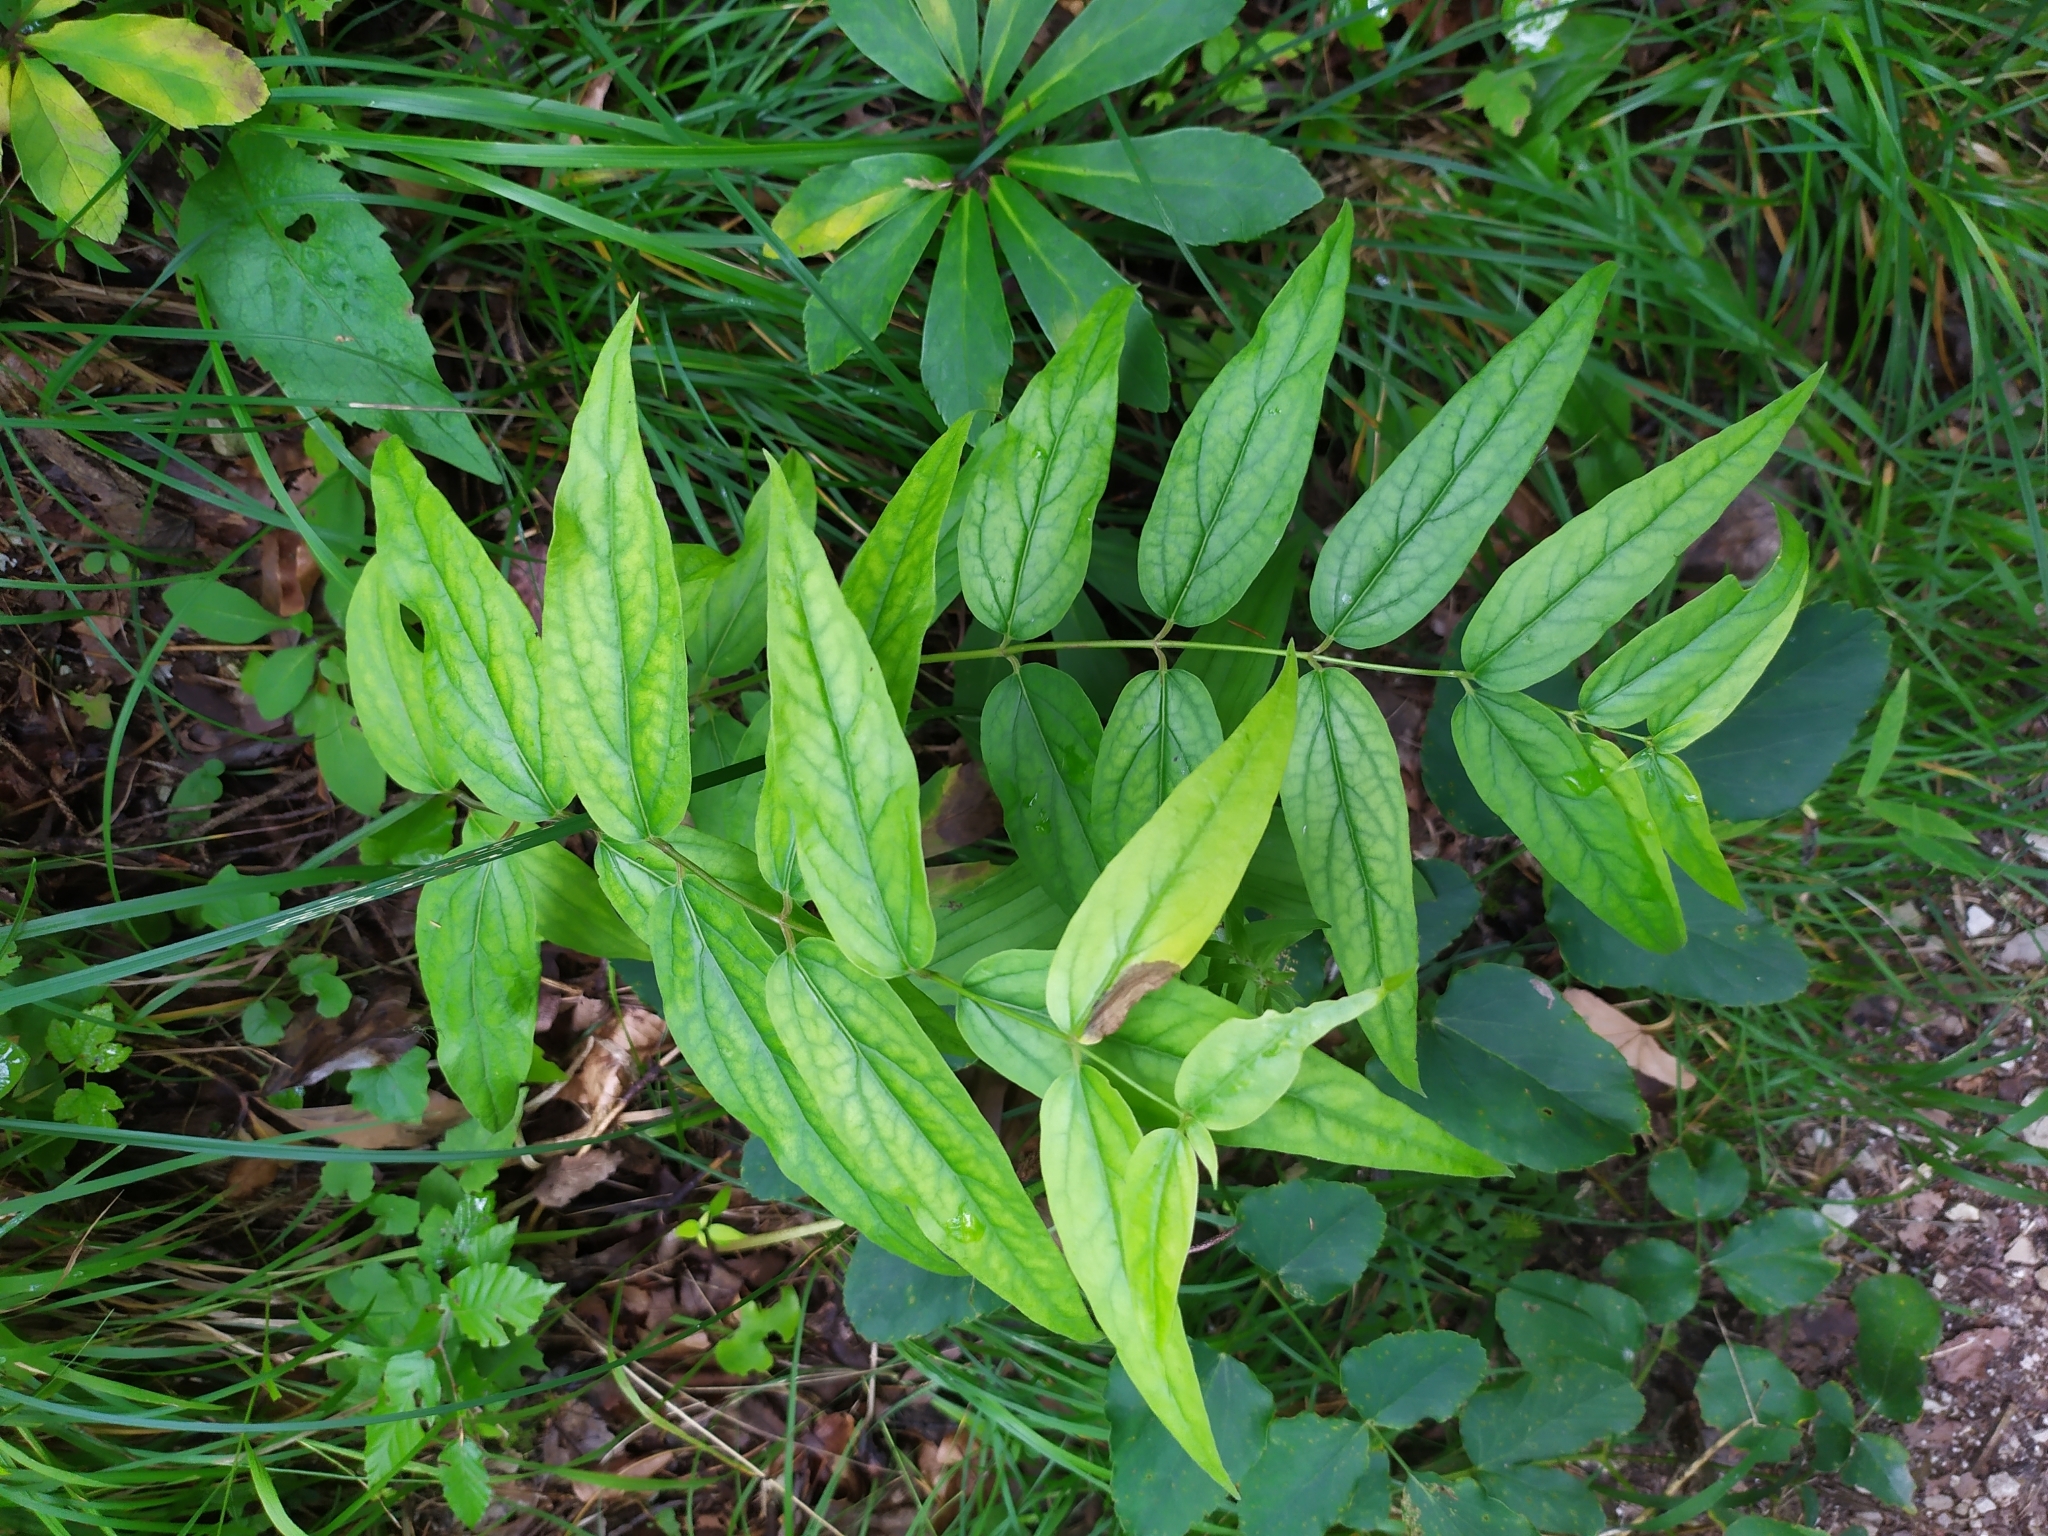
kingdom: Plantae
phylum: Tracheophyta
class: Magnoliopsida
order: Gentianales
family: Gentianaceae
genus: Gentiana
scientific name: Gentiana asclepiadea
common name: Willow gentian
